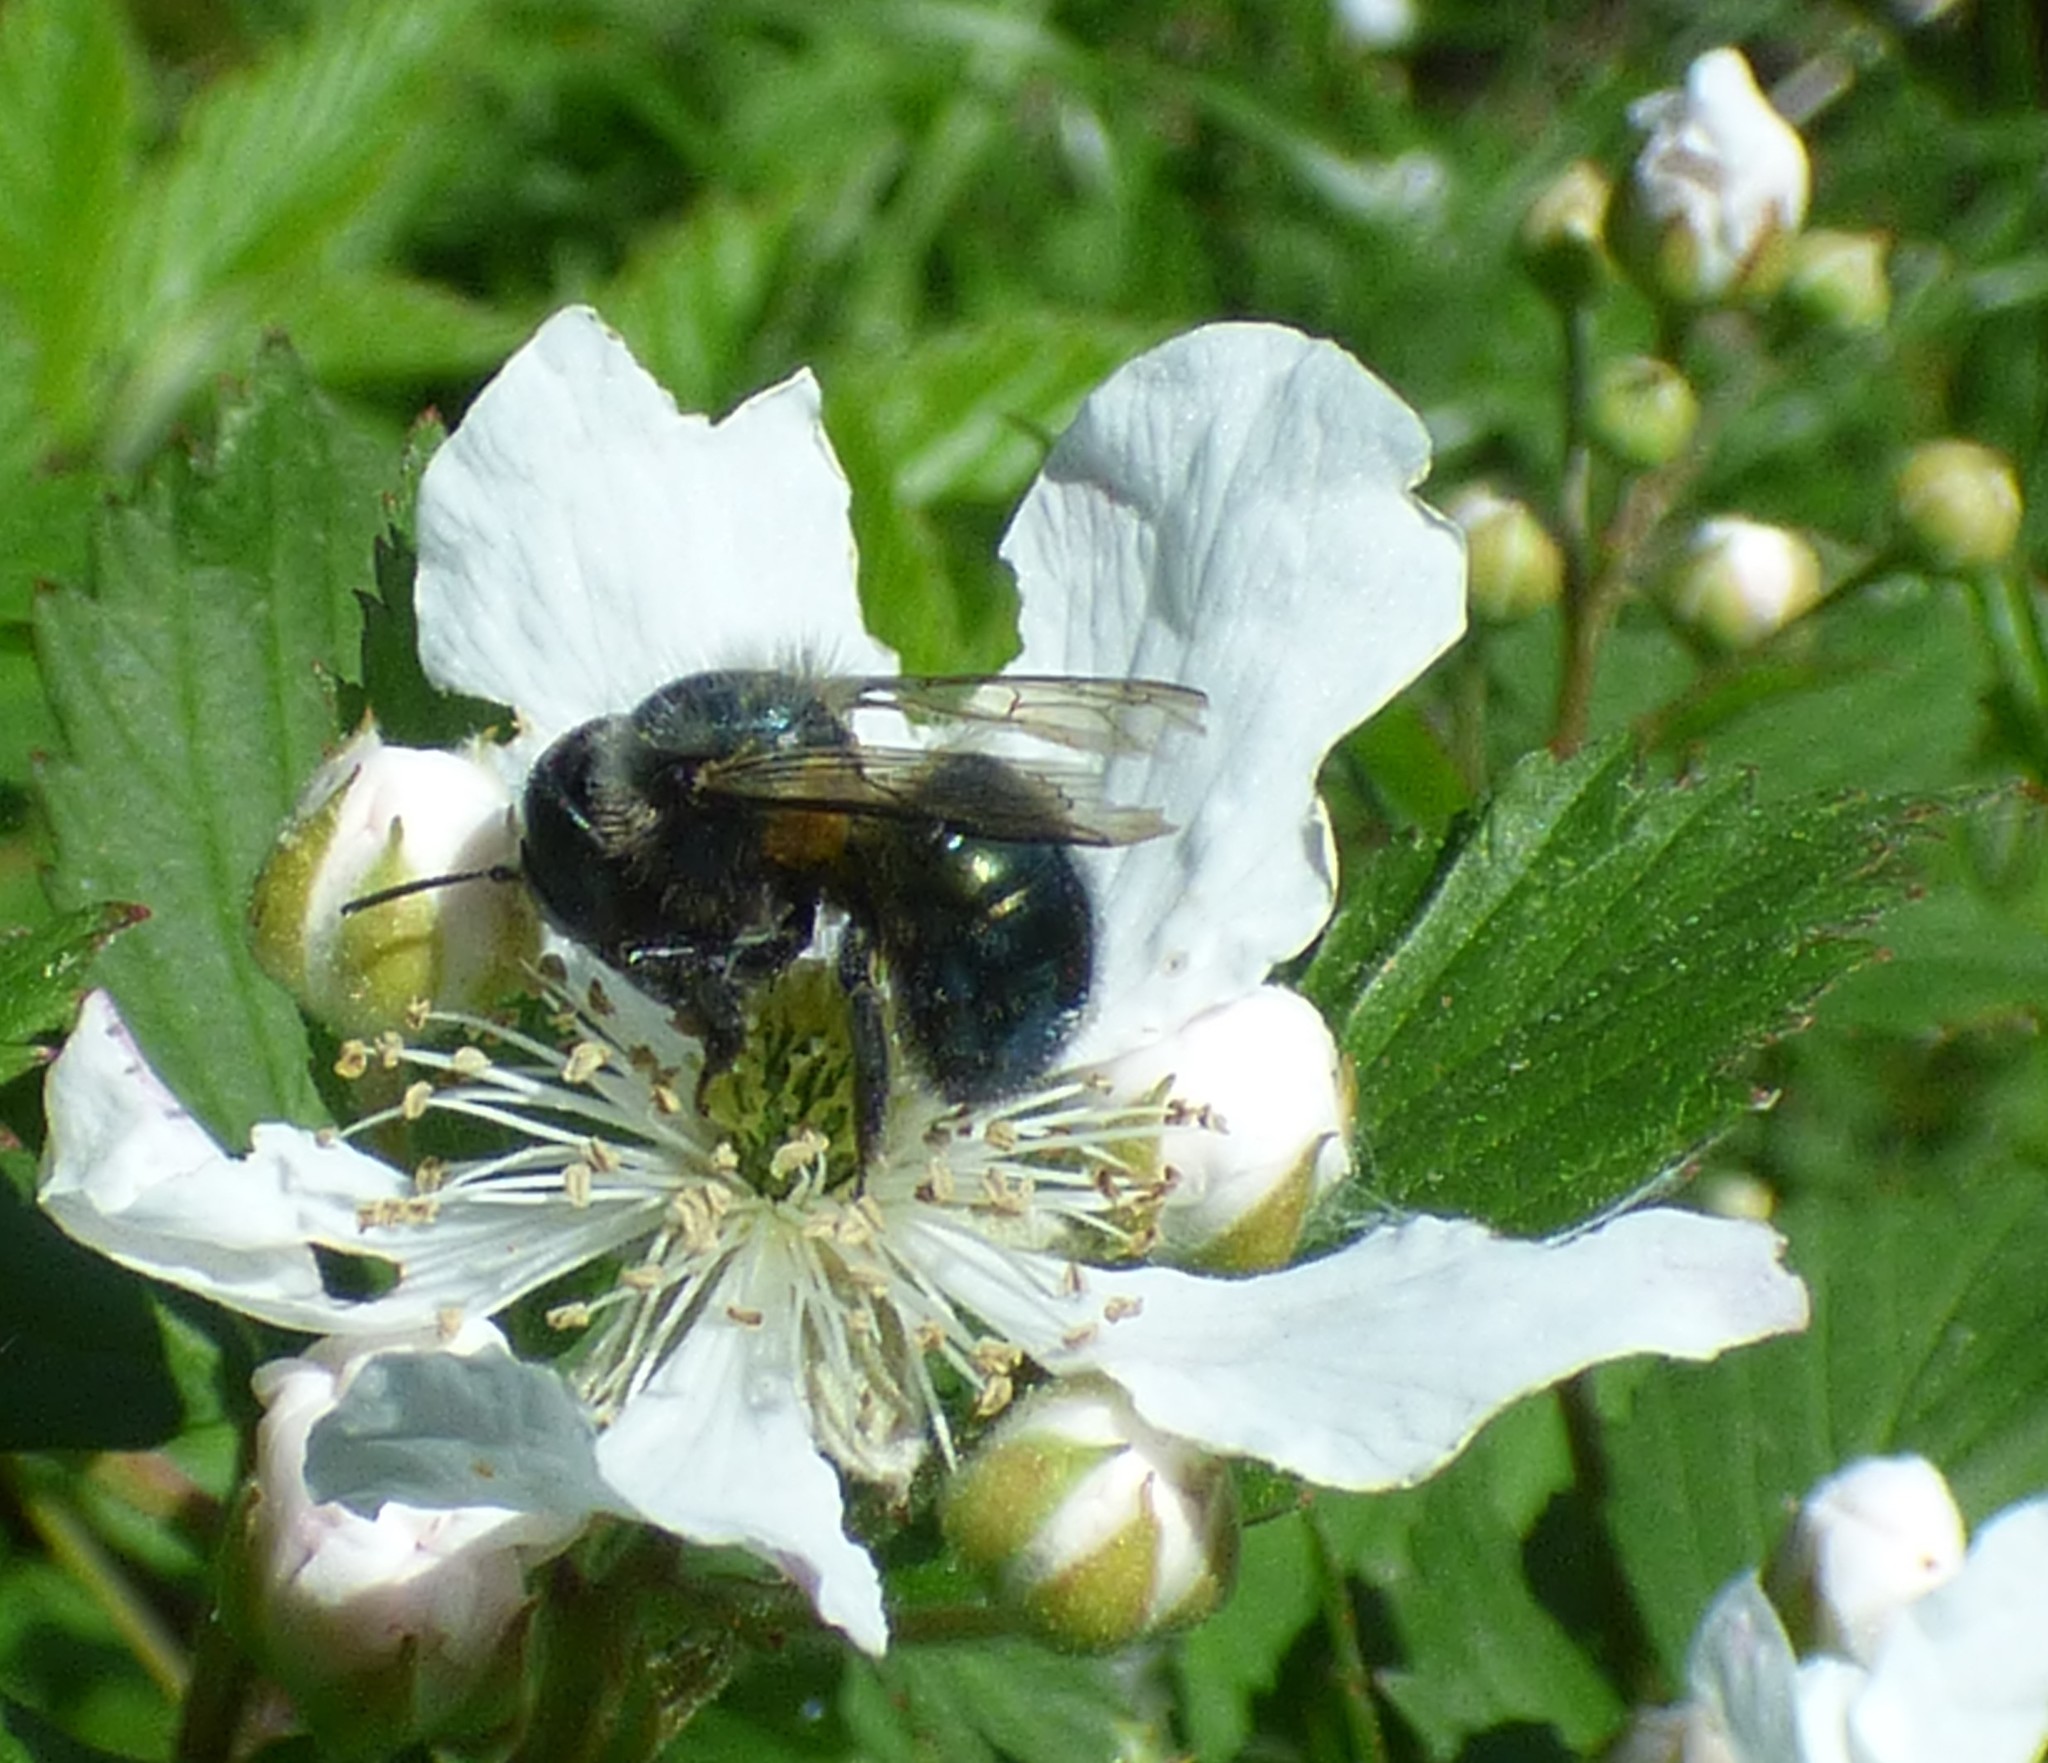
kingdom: Animalia
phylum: Arthropoda
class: Insecta
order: Hymenoptera
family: Megachilidae
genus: Osmia
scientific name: Osmia lignaria
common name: Blue orchard bee
